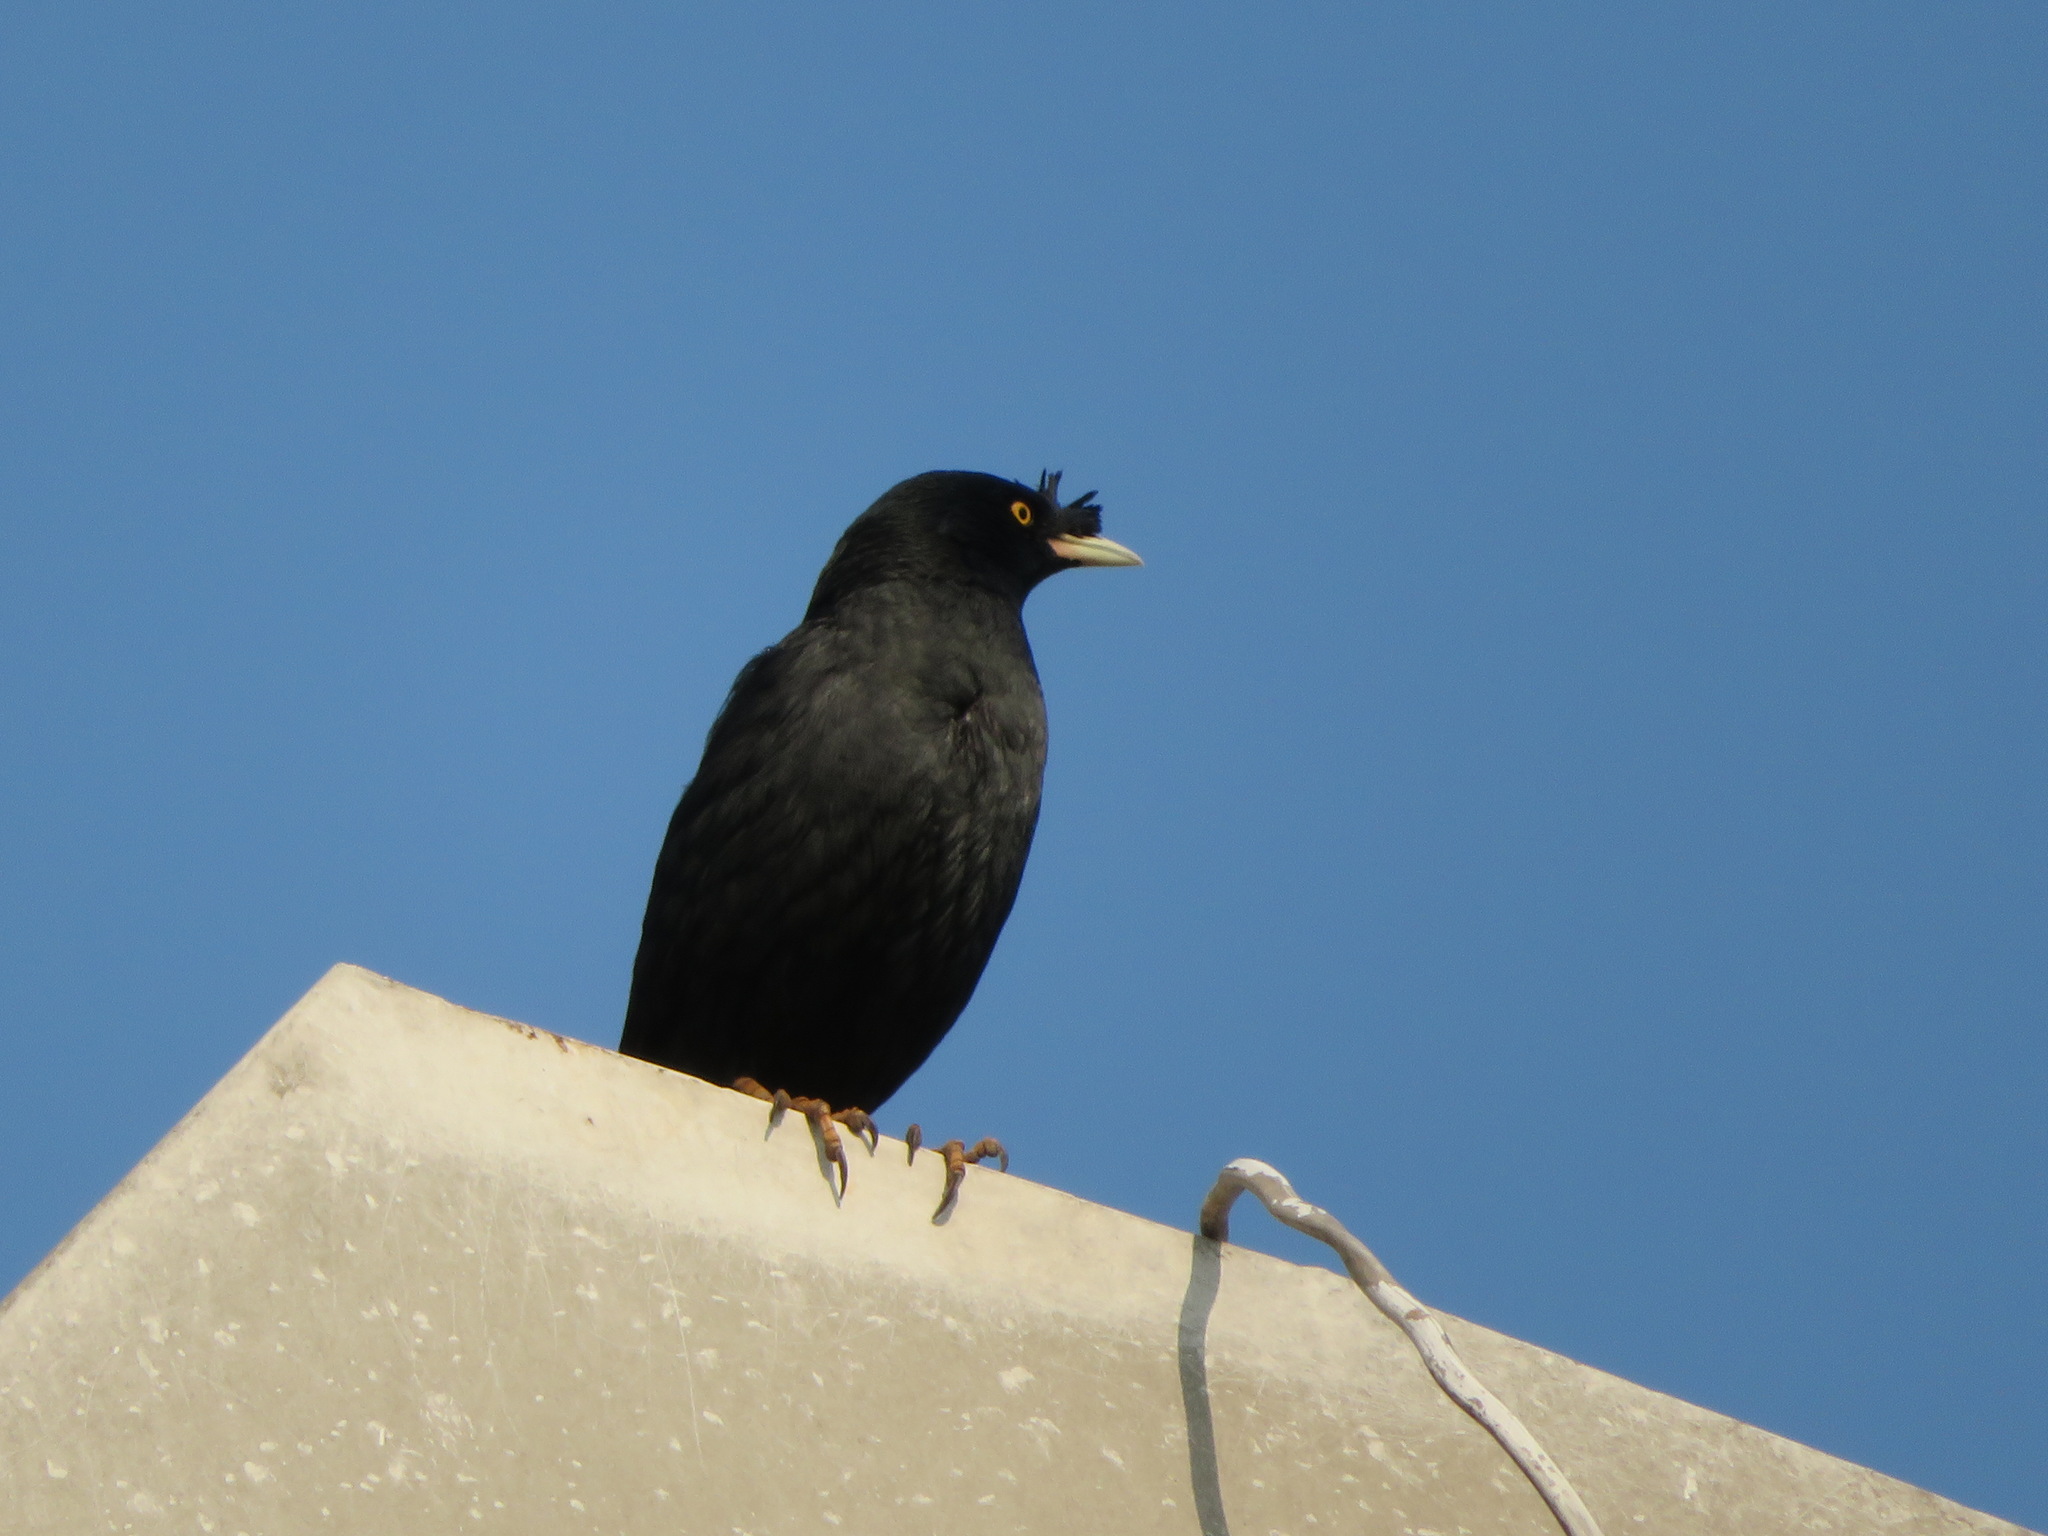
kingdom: Animalia
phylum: Chordata
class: Aves
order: Passeriformes
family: Sturnidae
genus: Acridotheres
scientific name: Acridotheres cristatellus
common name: Crested myna
